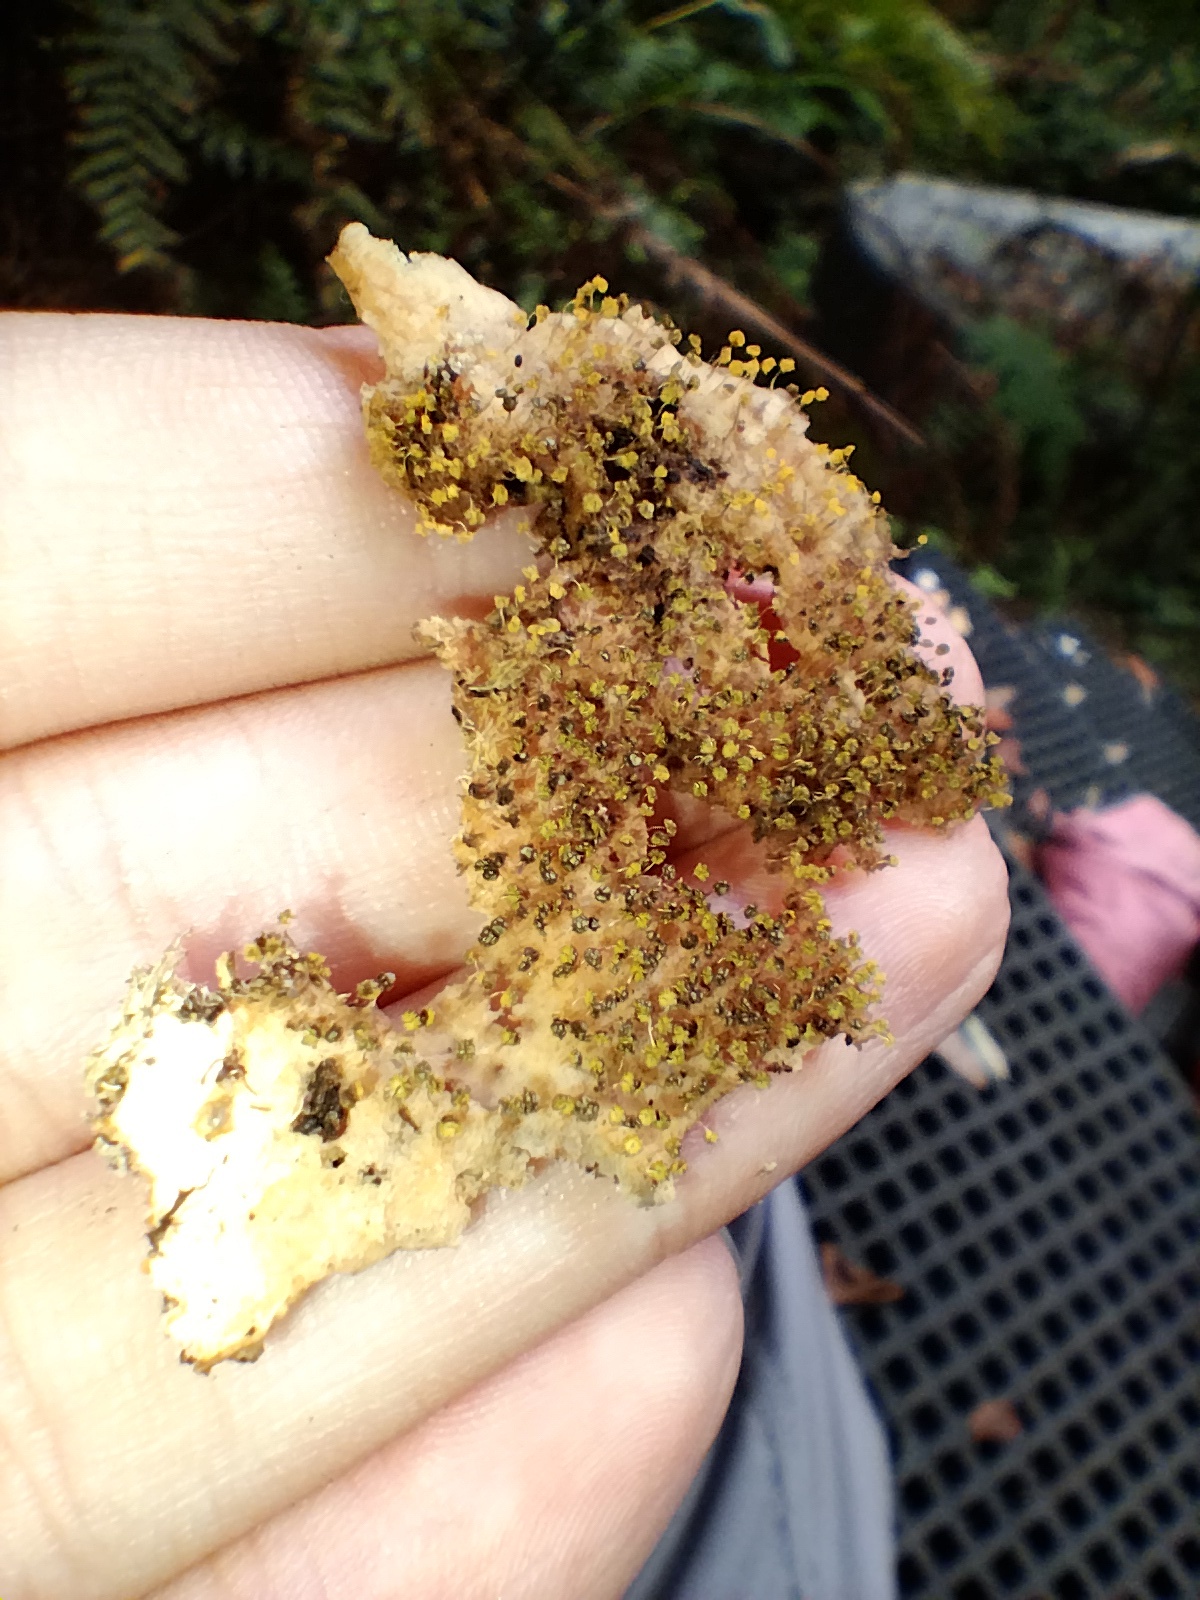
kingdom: Protozoa
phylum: Mycetozoa
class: Myxomycetes
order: Physarales
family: Physaraceae
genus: Physarum
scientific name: Physarum viride
